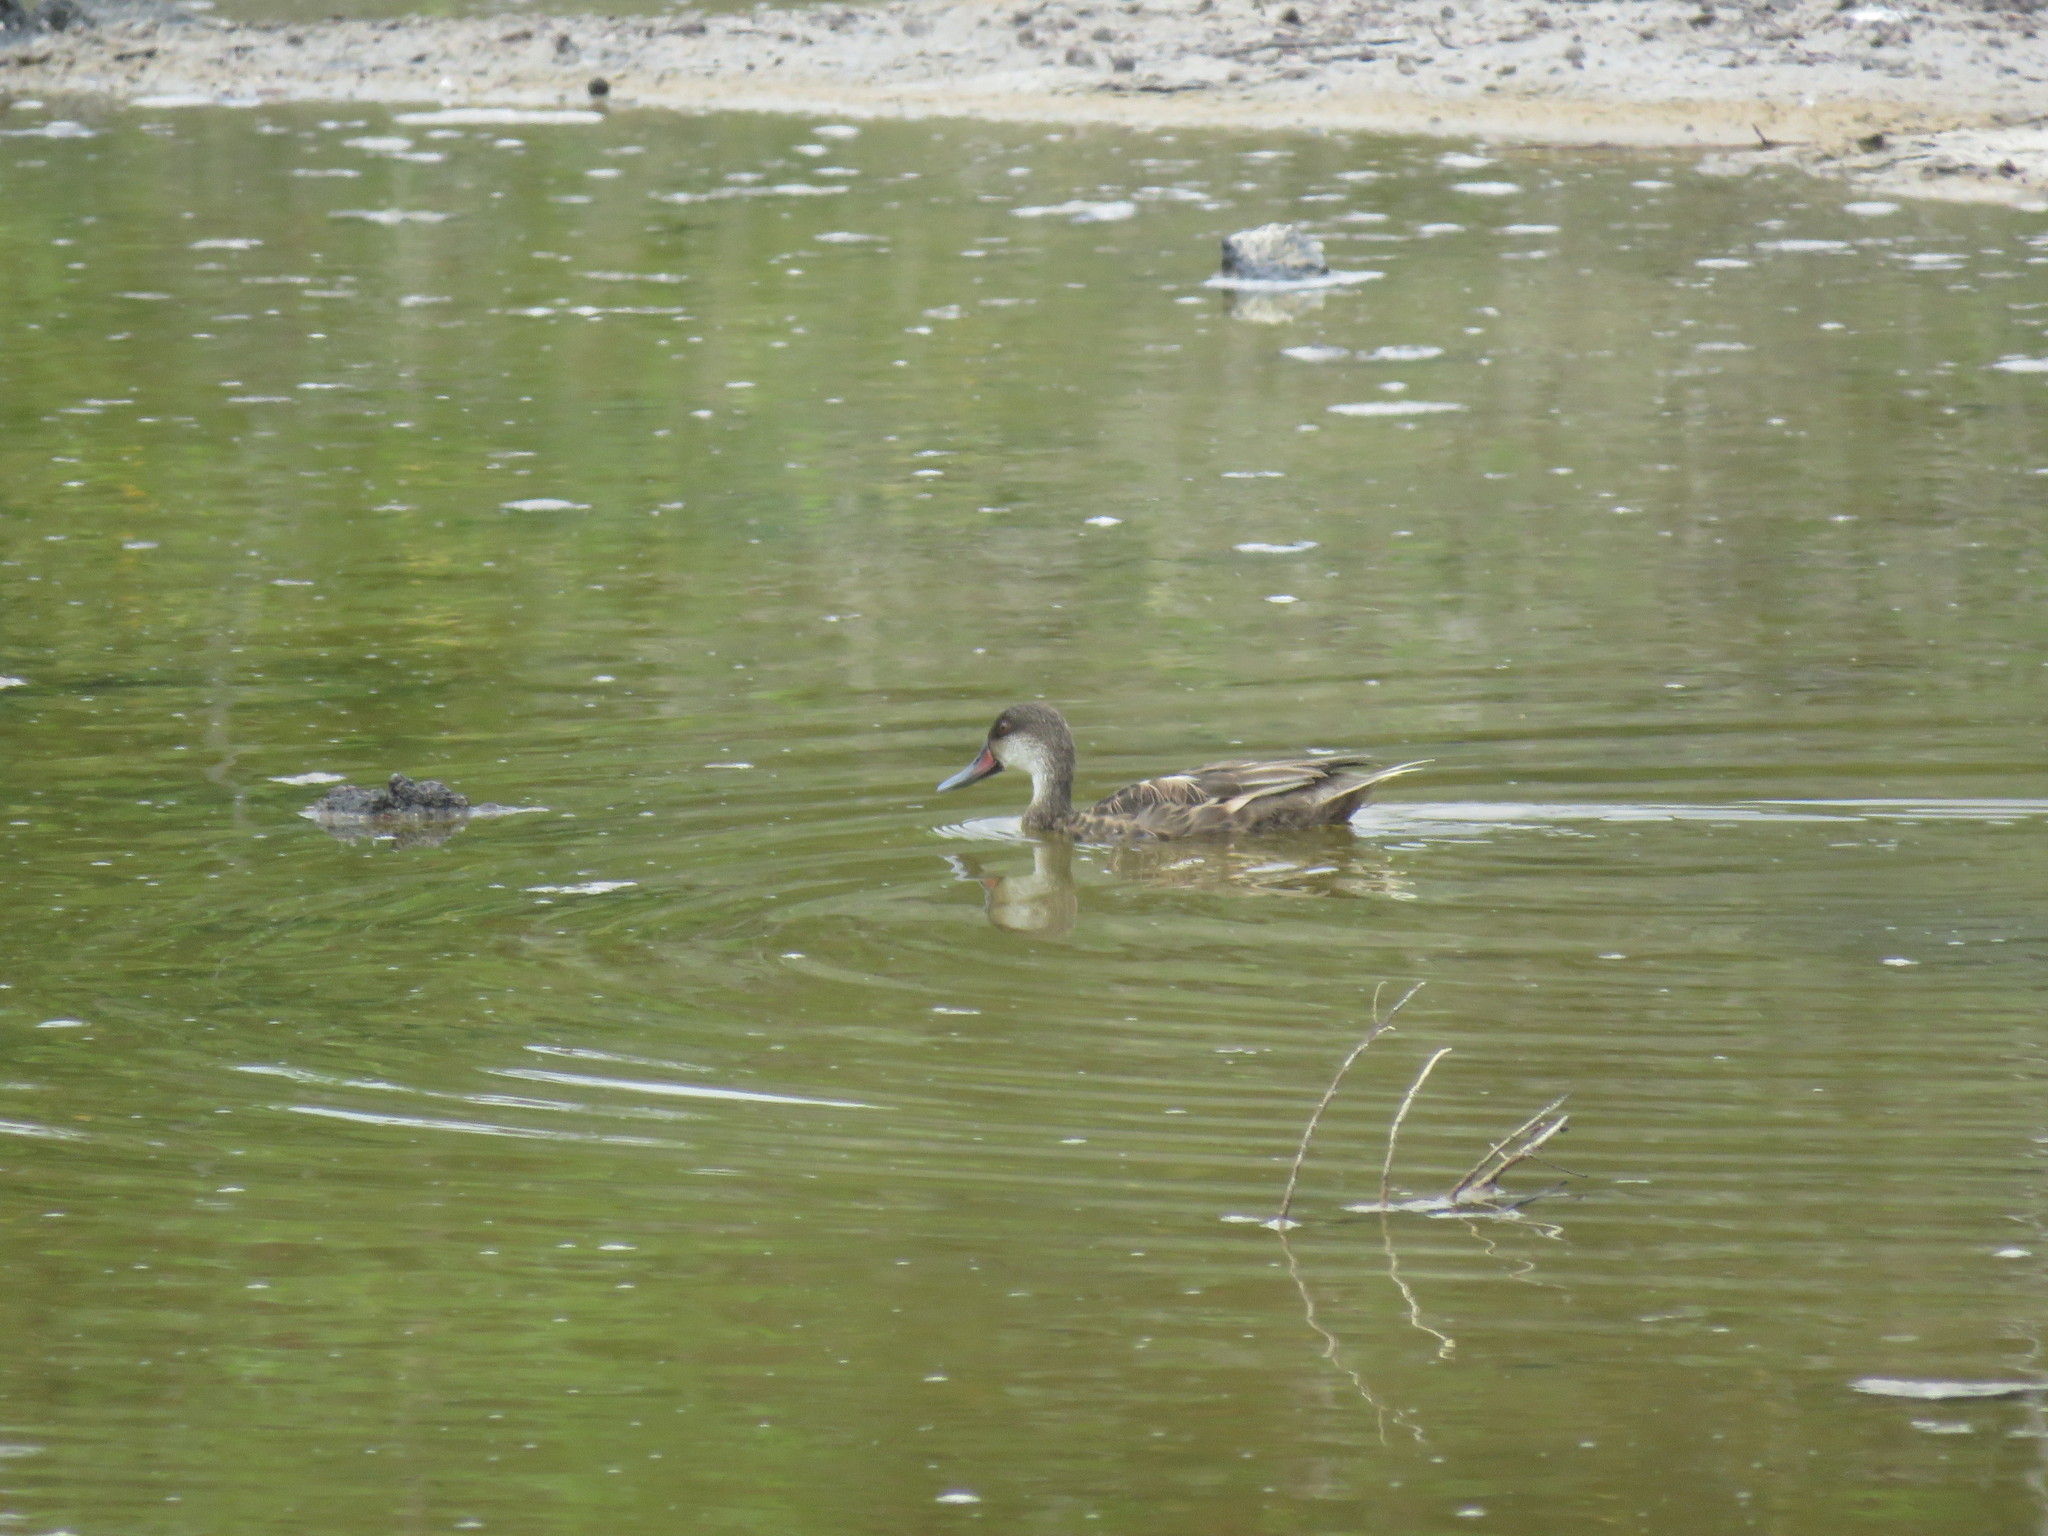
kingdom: Animalia
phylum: Chordata
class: Aves
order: Anseriformes
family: Anatidae
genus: Anas
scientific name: Anas bahamensis
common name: White-cheeked pintail
